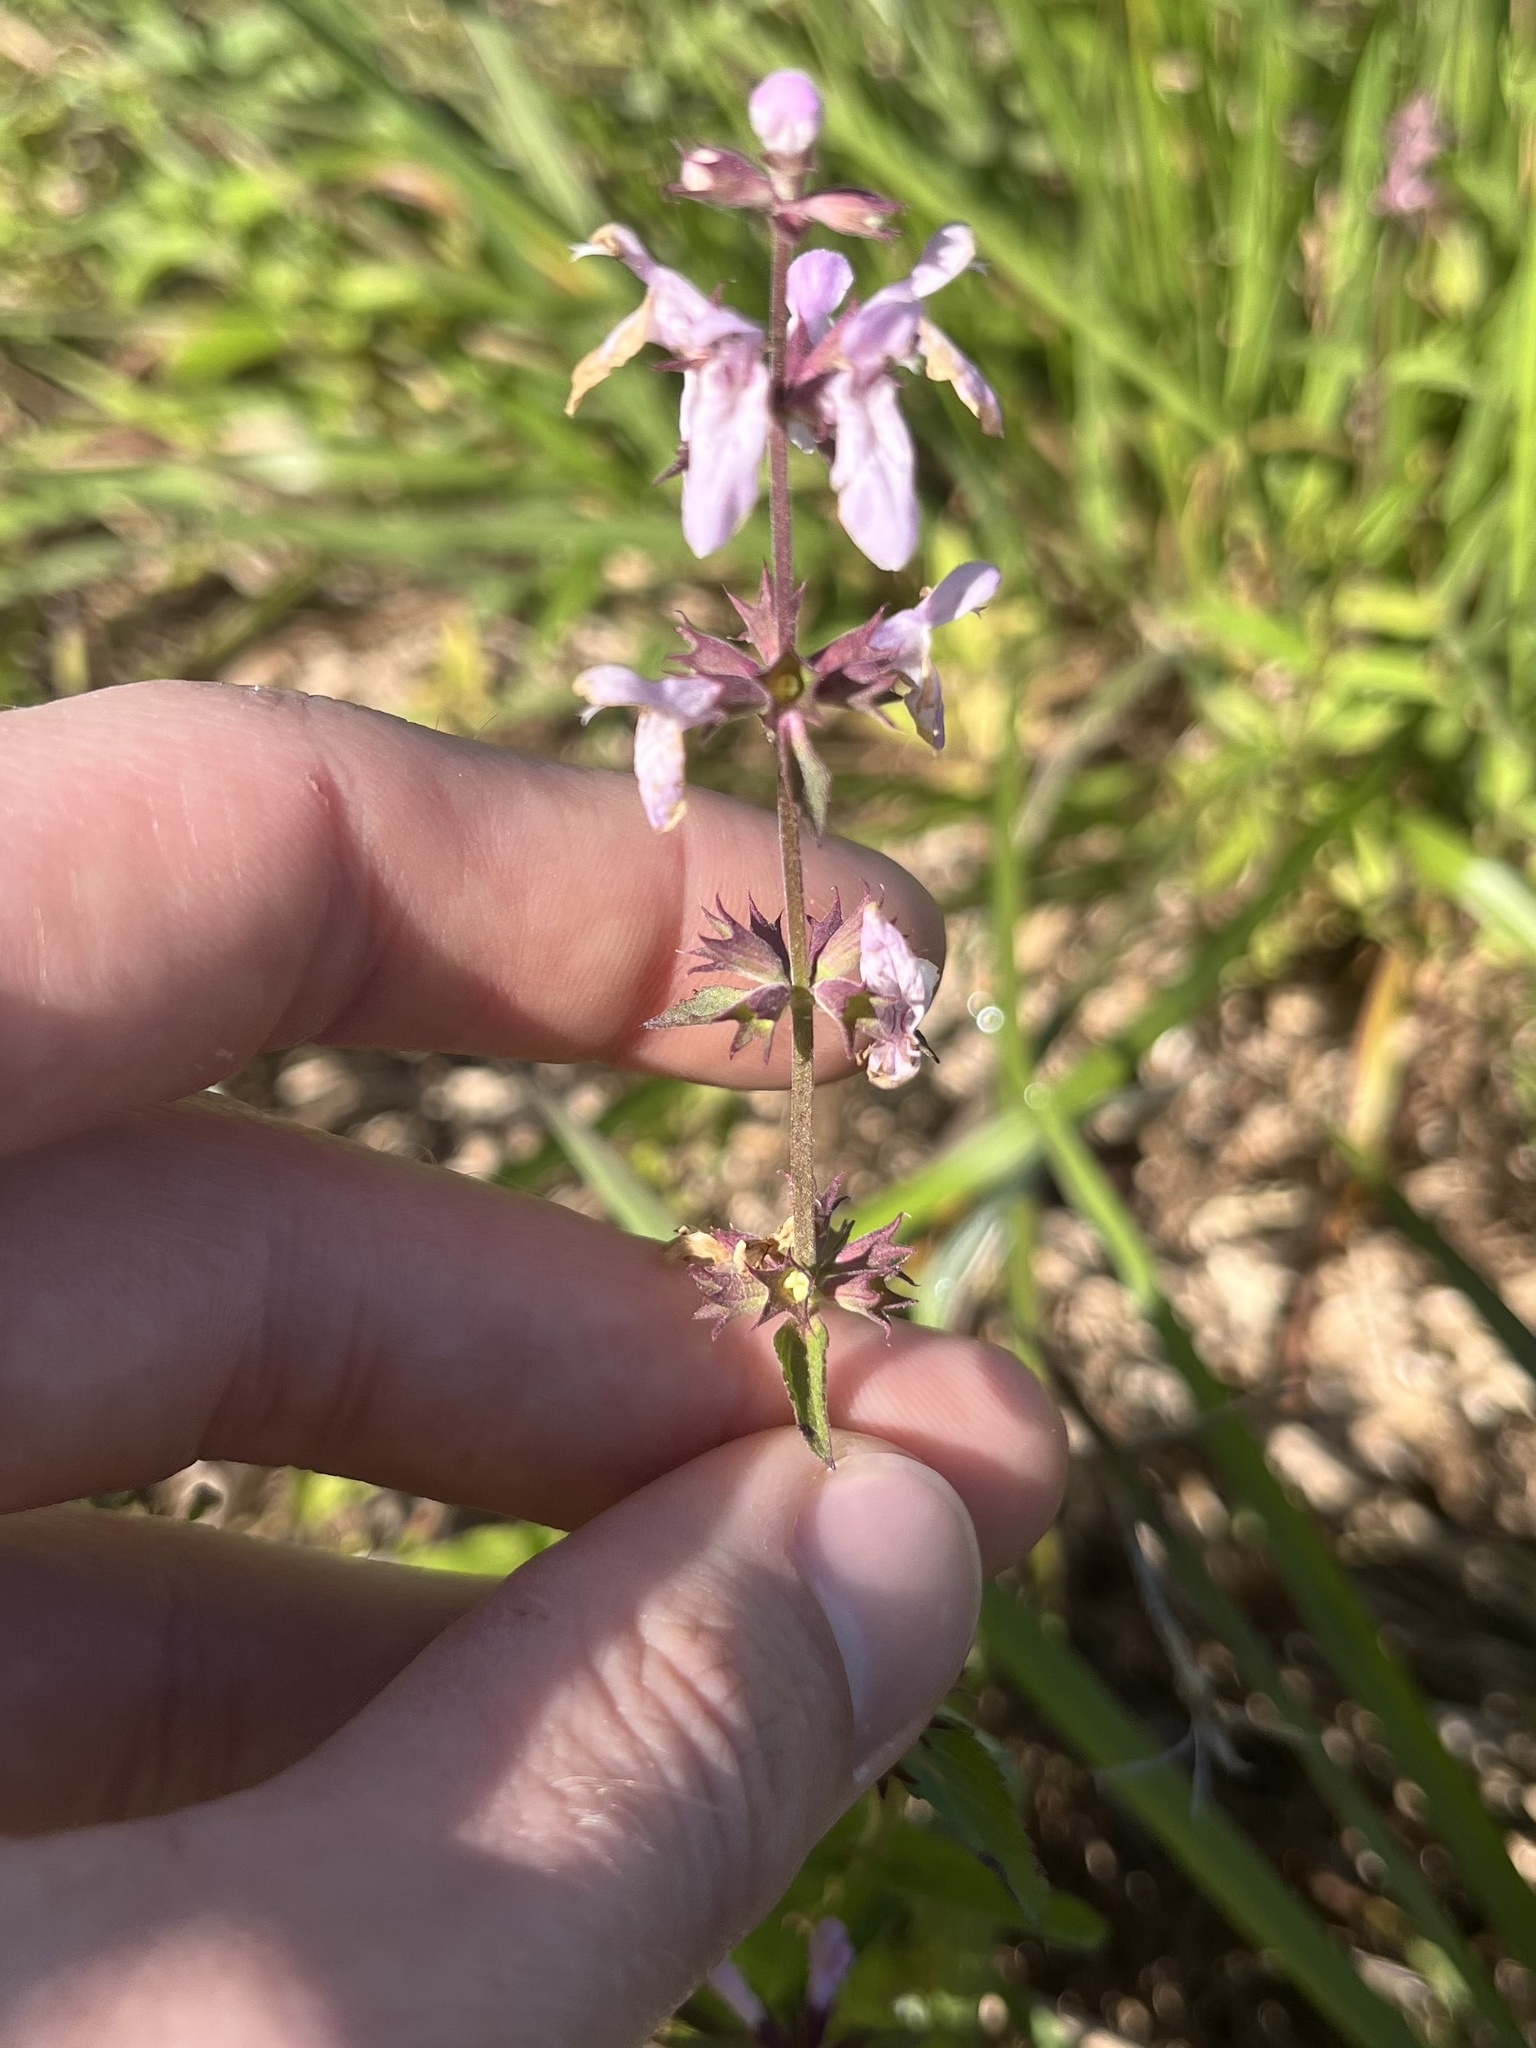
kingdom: Plantae
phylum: Tracheophyta
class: Magnoliopsida
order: Lamiales
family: Lamiaceae
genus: Stachys
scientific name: Stachys floridana
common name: Florida betony
